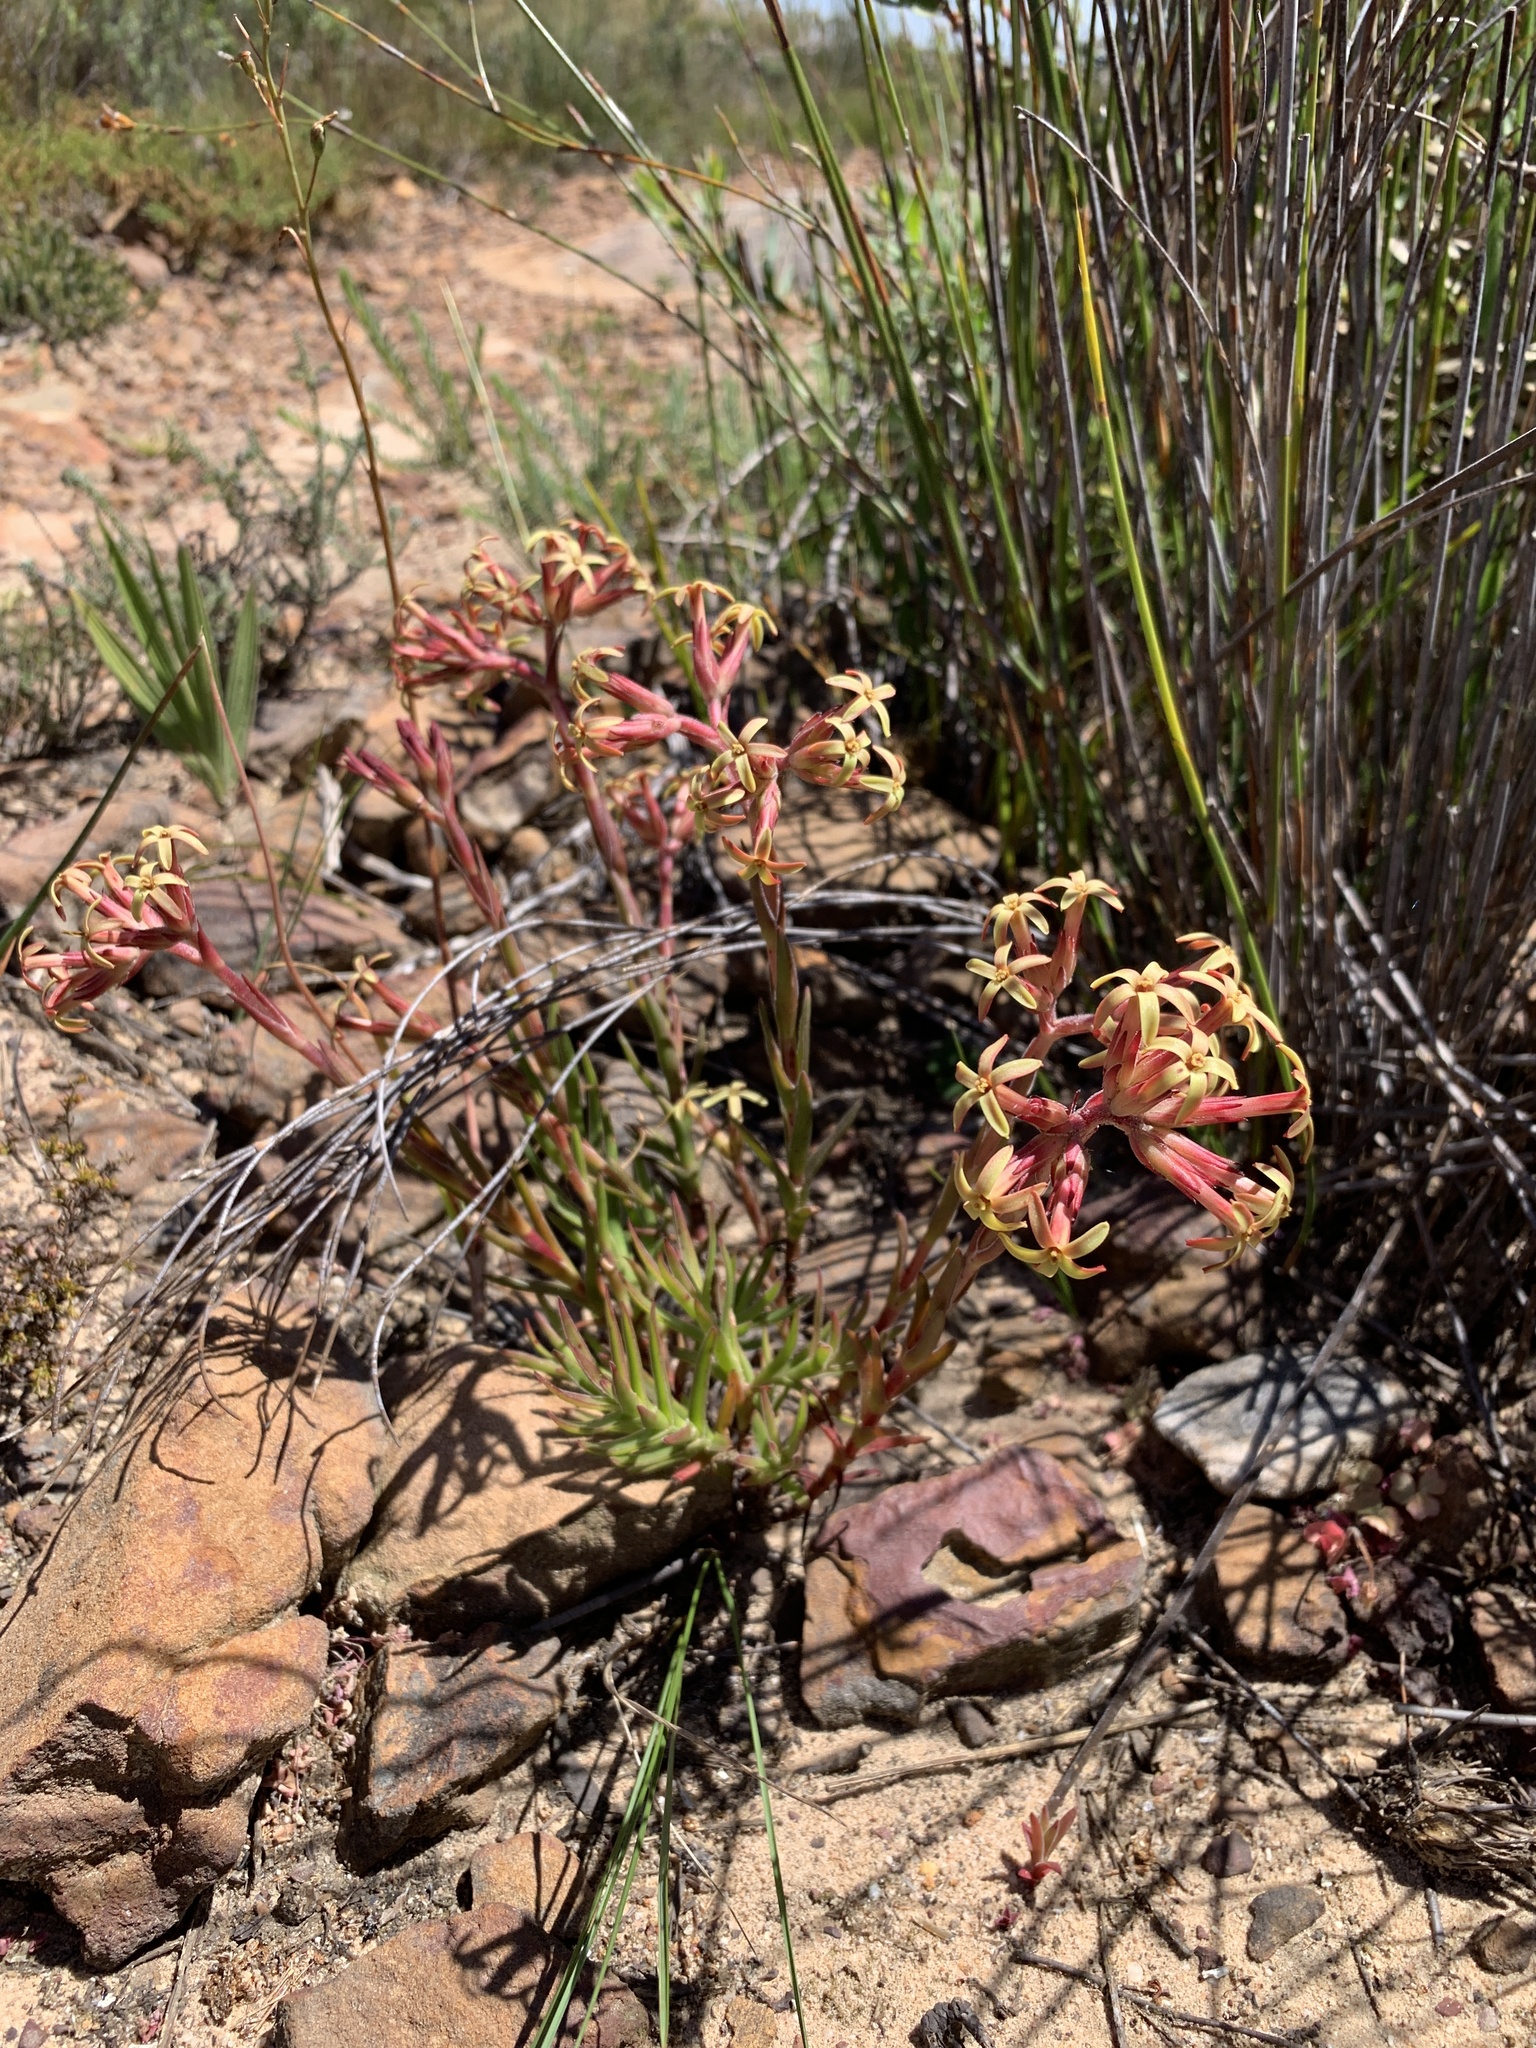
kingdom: Plantae
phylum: Tracheophyta
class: Magnoliopsida
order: Proteales
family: Proteaceae
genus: Protea
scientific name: Protea acaulos
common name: Common ground sugarbush
